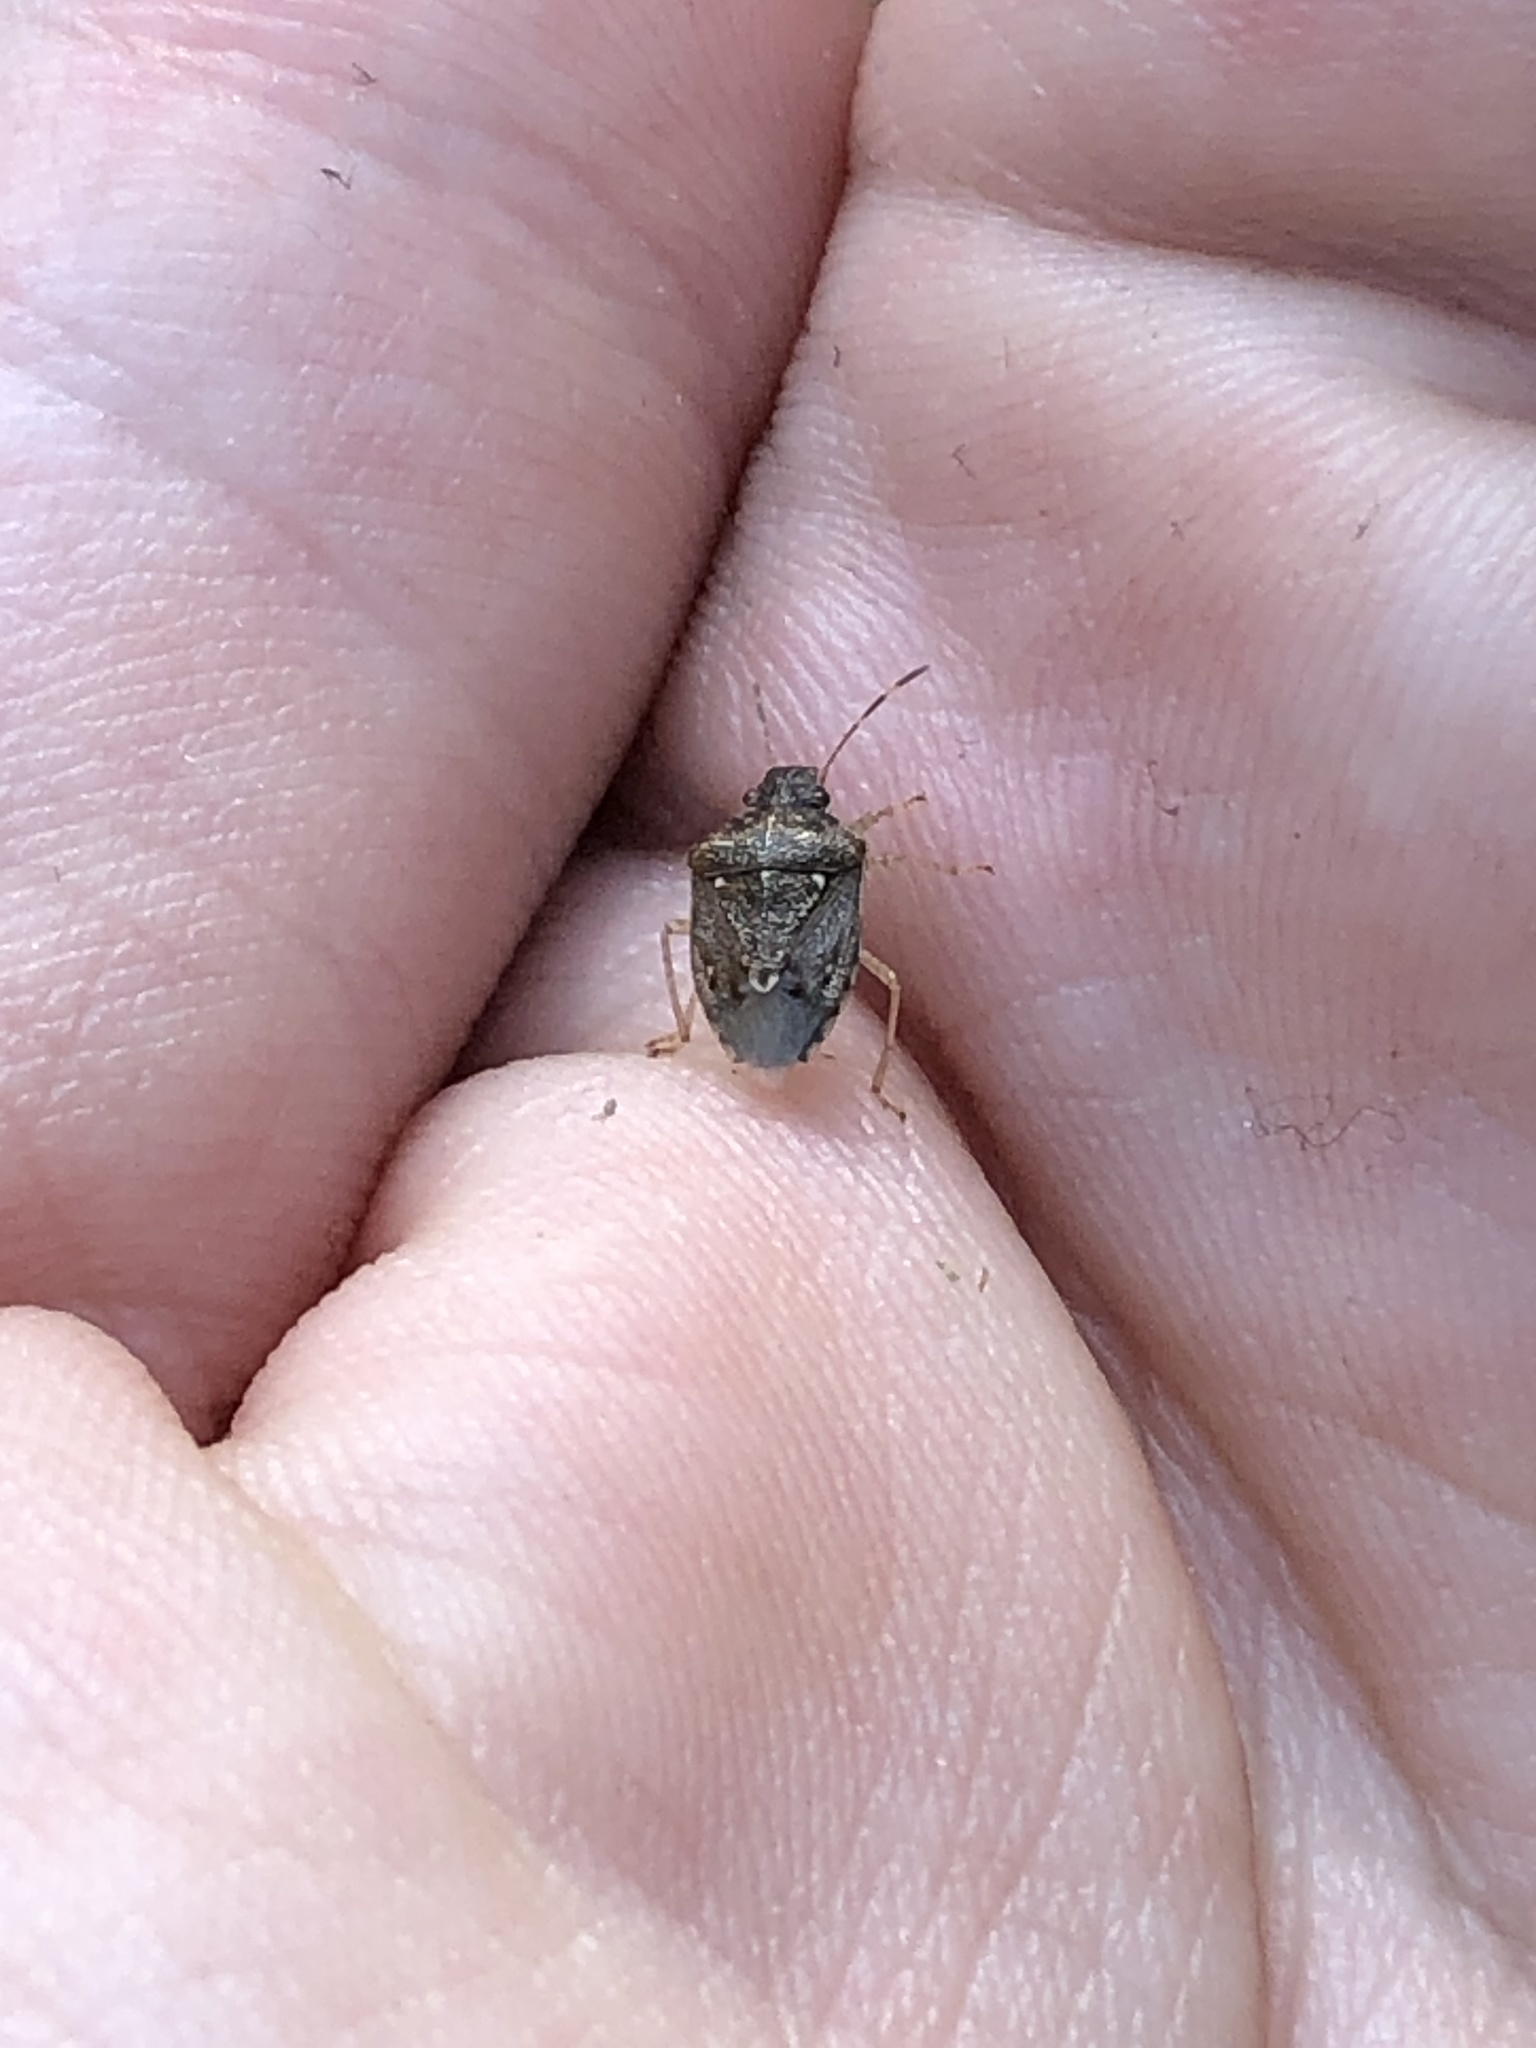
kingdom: Animalia
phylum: Arthropoda
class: Insecta
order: Hemiptera
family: Pentatomidae
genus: Mormidea
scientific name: Mormidea cubrosa
